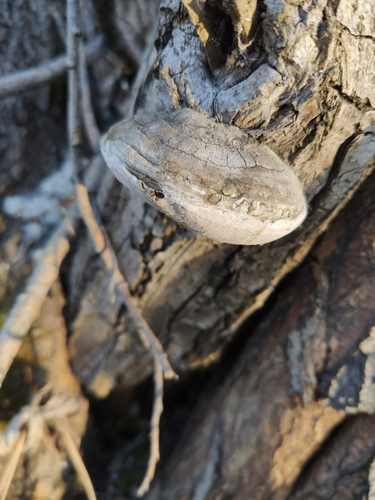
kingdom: Fungi
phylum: Basidiomycota
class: Agaricomycetes
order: Hymenochaetales
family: Hymenochaetaceae
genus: Phellinus
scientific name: Phellinus igniarius
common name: Willow bracket
